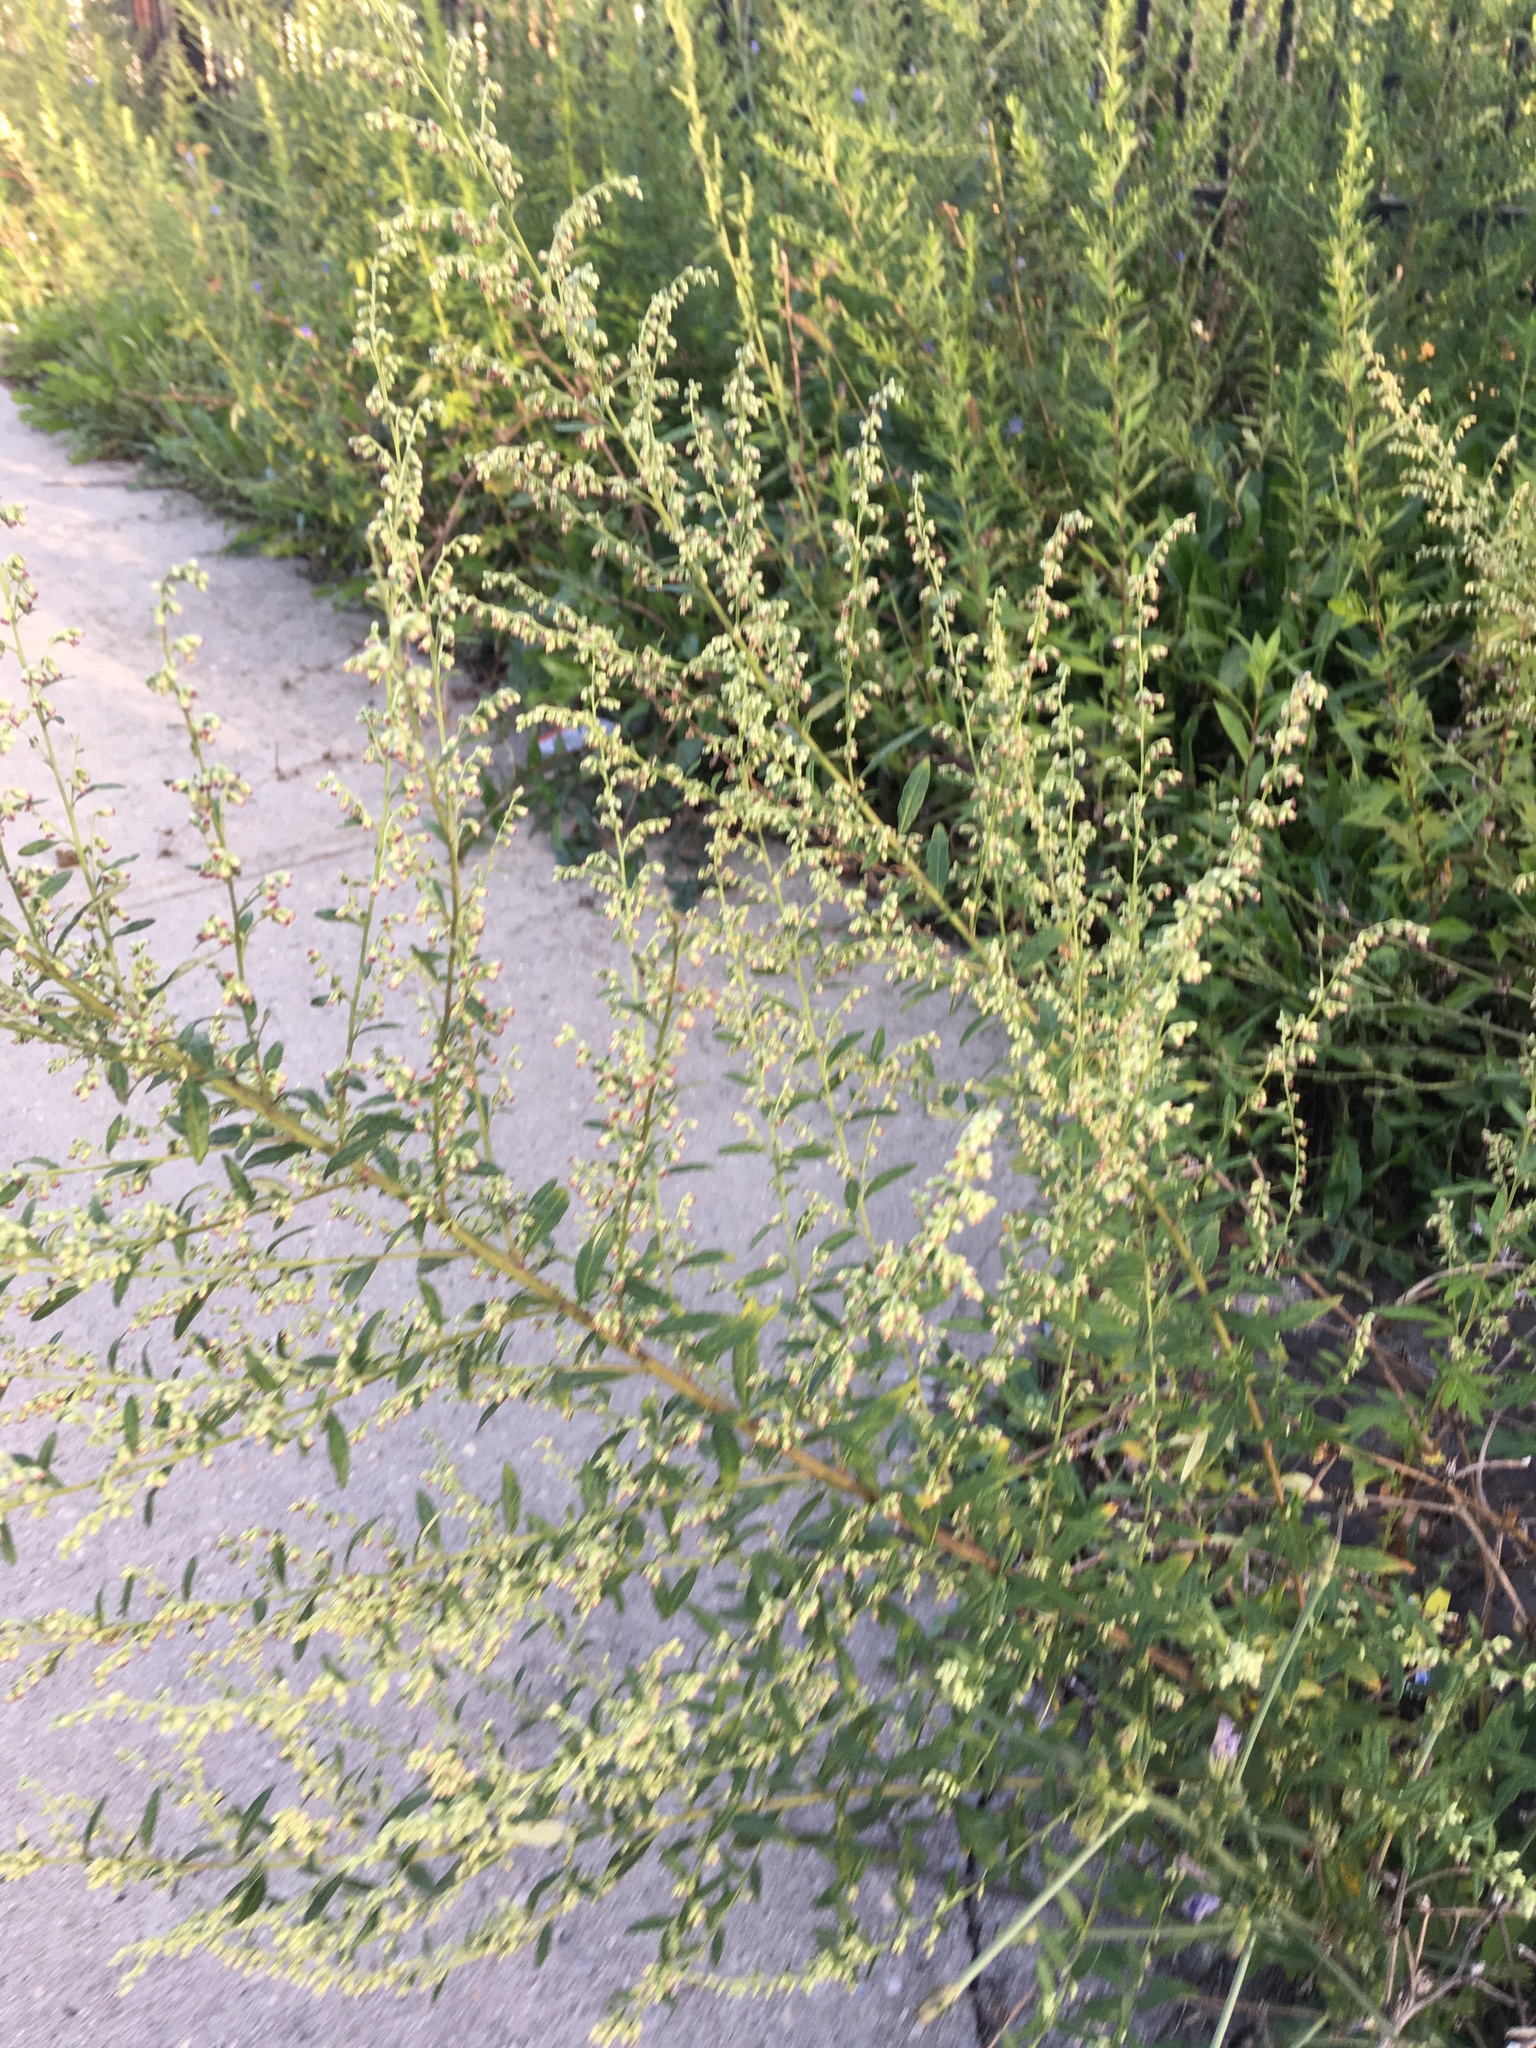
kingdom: Plantae
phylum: Tracheophyta
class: Magnoliopsida
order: Asterales
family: Asteraceae
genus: Artemisia
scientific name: Artemisia vulgaris
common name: Mugwort
